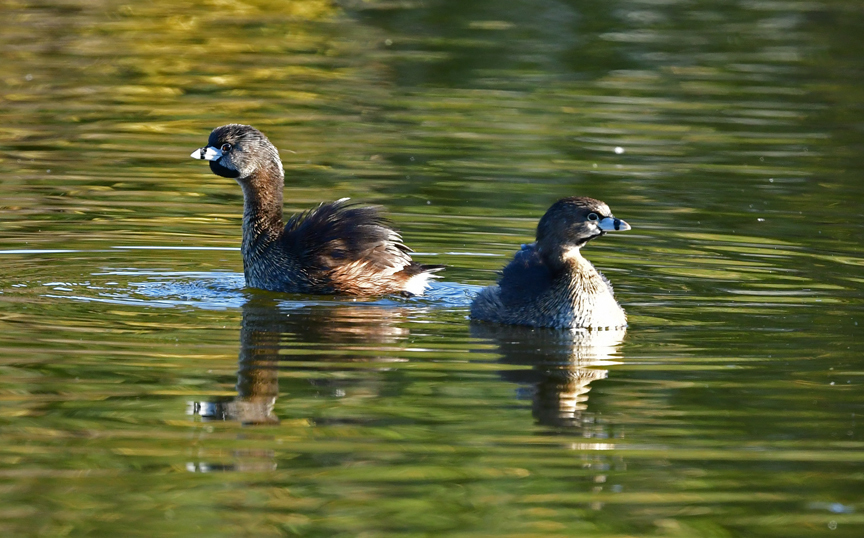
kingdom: Animalia
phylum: Chordata
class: Aves
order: Podicipediformes
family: Podicipedidae
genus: Podilymbus
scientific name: Podilymbus podiceps
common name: Pied-billed grebe
